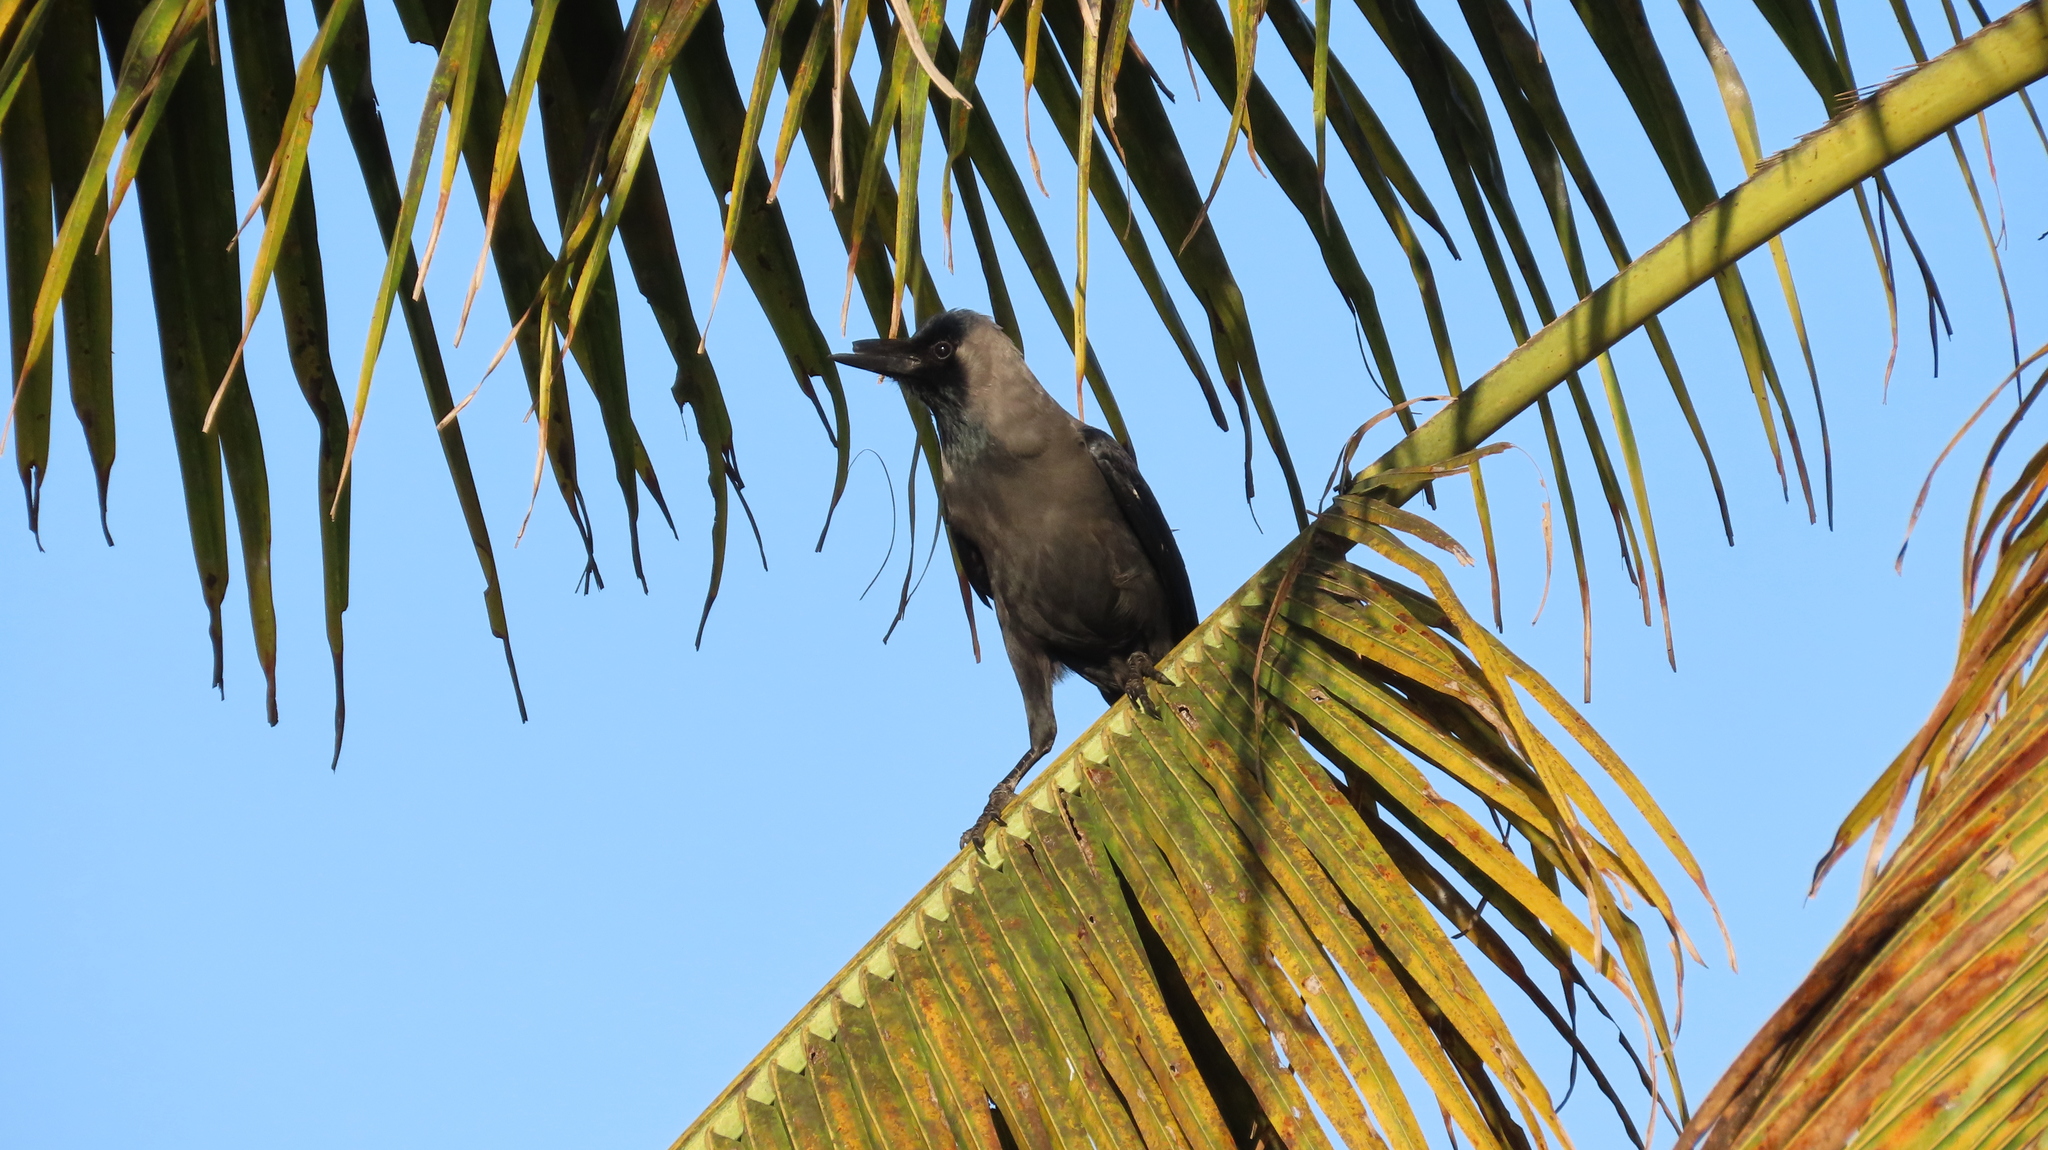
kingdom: Animalia
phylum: Chordata
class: Aves
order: Passeriformes
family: Corvidae
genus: Corvus
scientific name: Corvus splendens
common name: House crow
